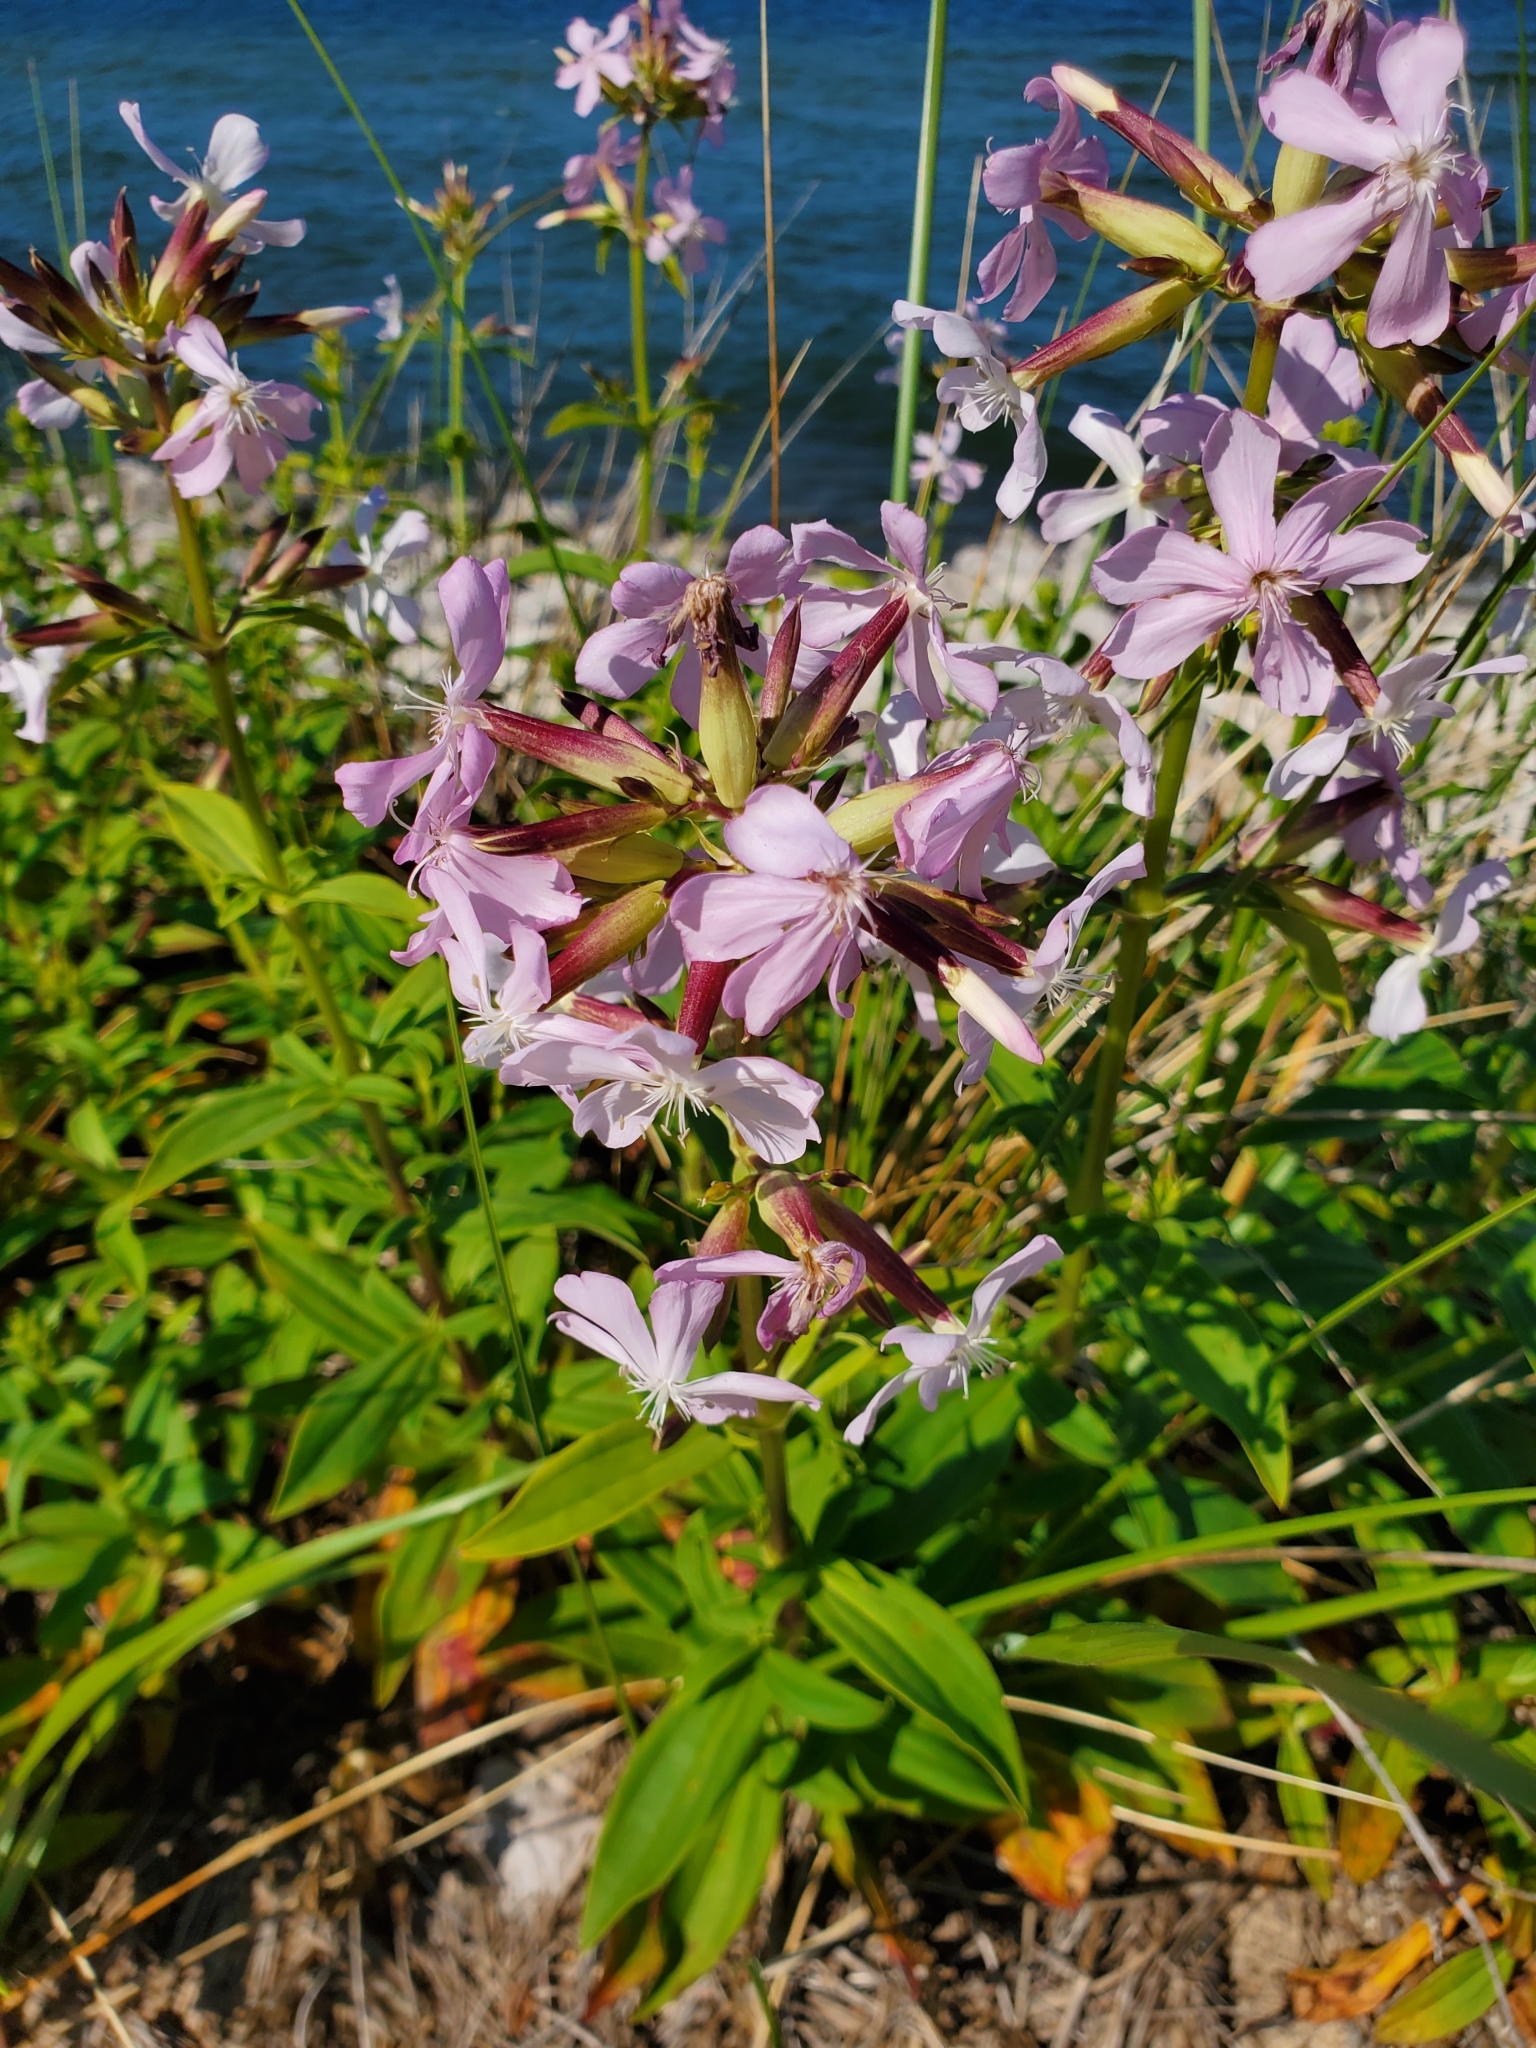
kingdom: Plantae
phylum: Tracheophyta
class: Magnoliopsida
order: Caryophyllales
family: Caryophyllaceae
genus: Saponaria
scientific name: Saponaria officinalis
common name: Soapwort
